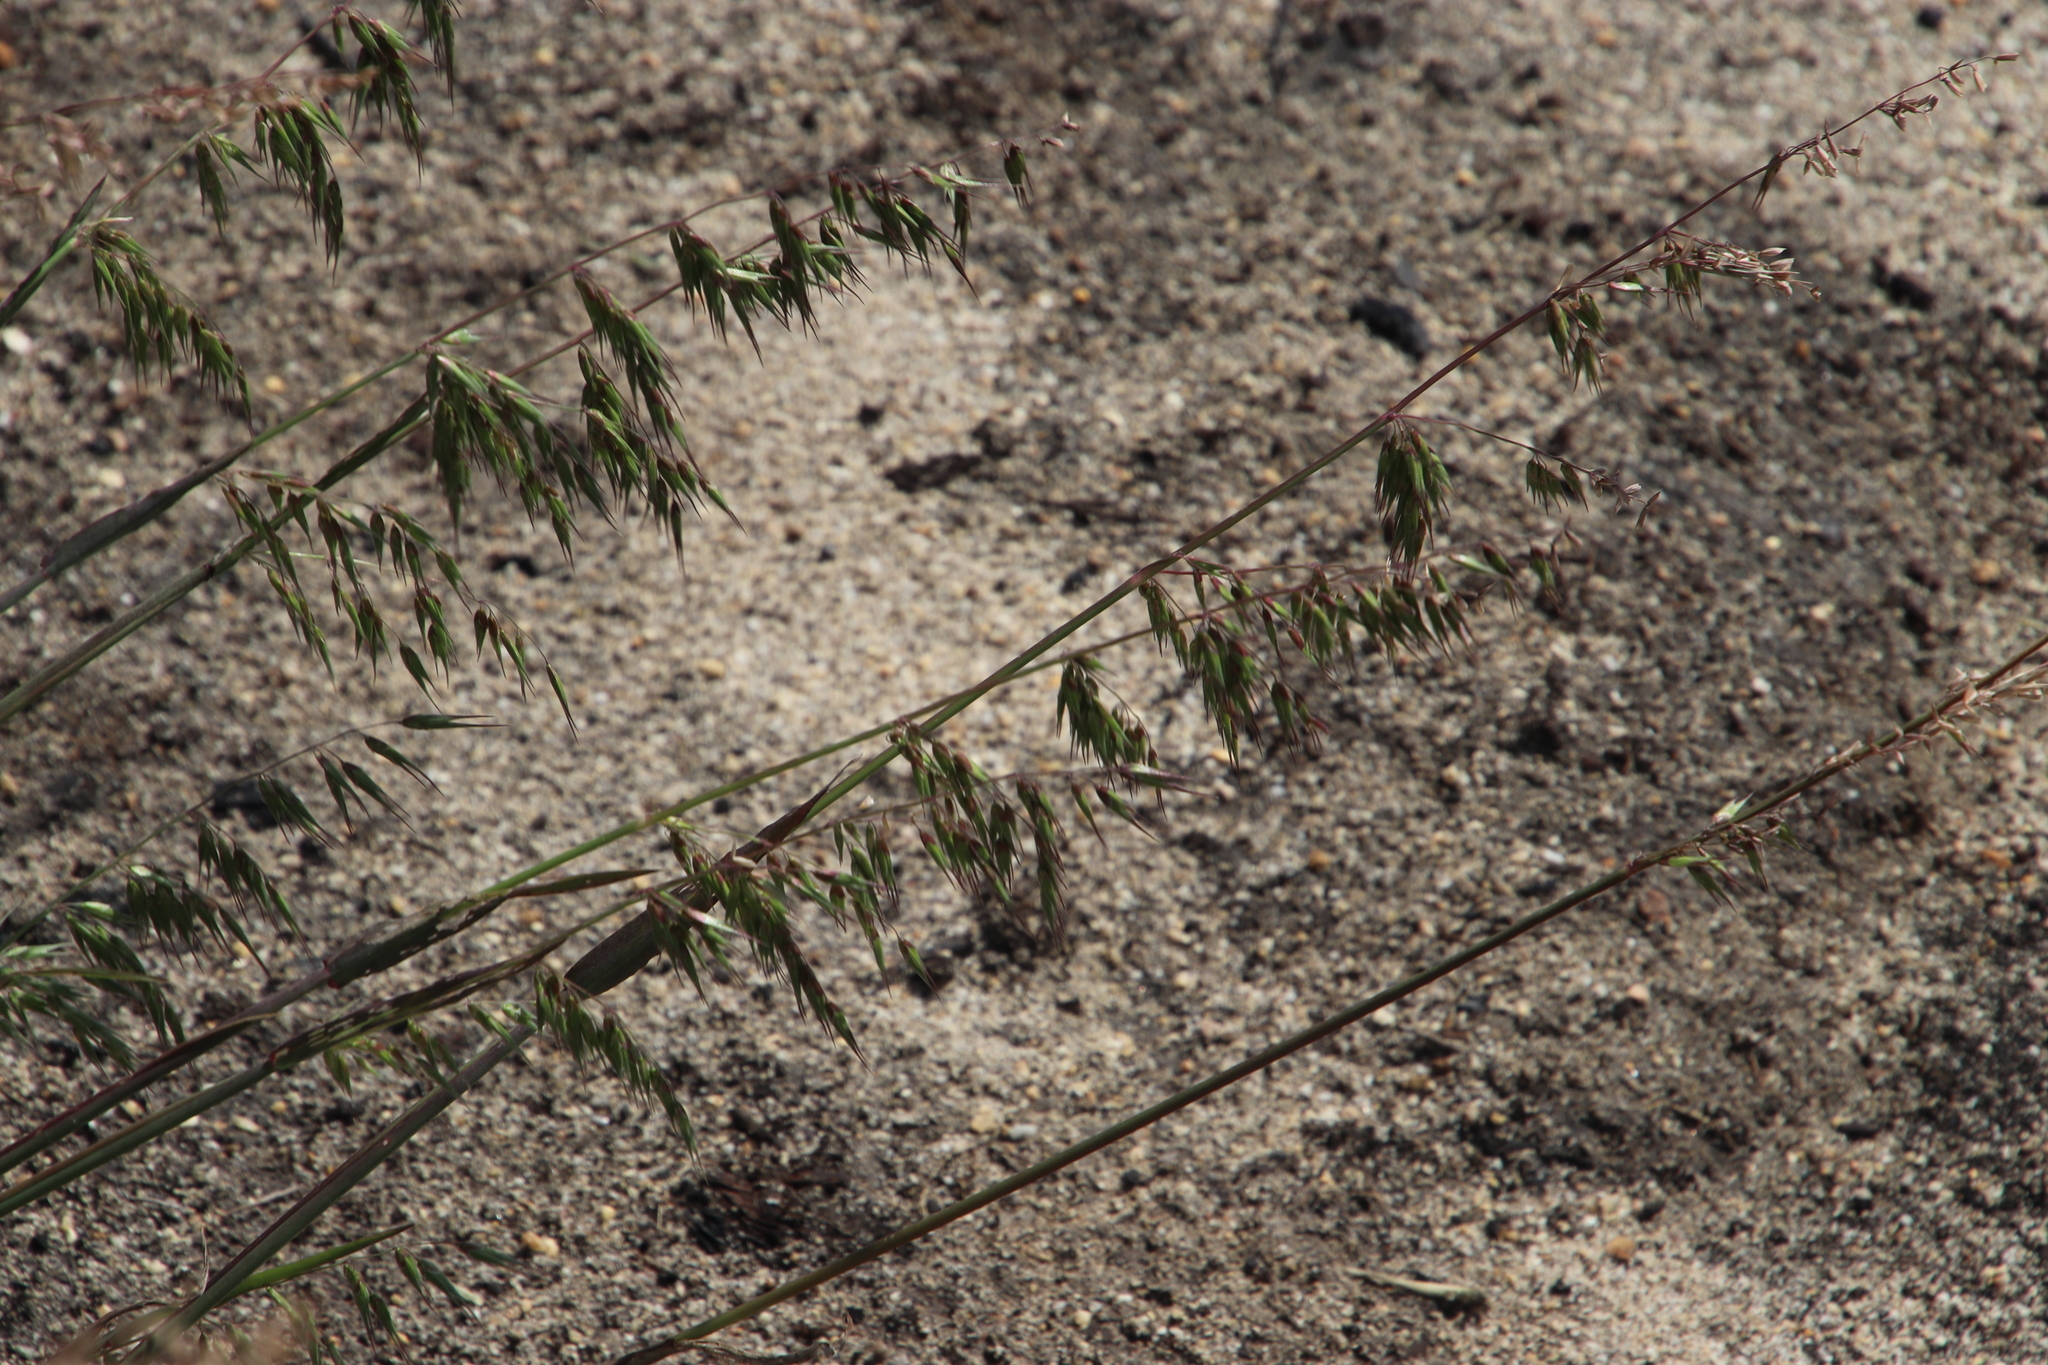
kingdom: Plantae
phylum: Tracheophyta
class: Liliopsida
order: Poales
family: Poaceae
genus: Ehrharta
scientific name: Ehrharta longiflora
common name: Longflowered veldtgrass
